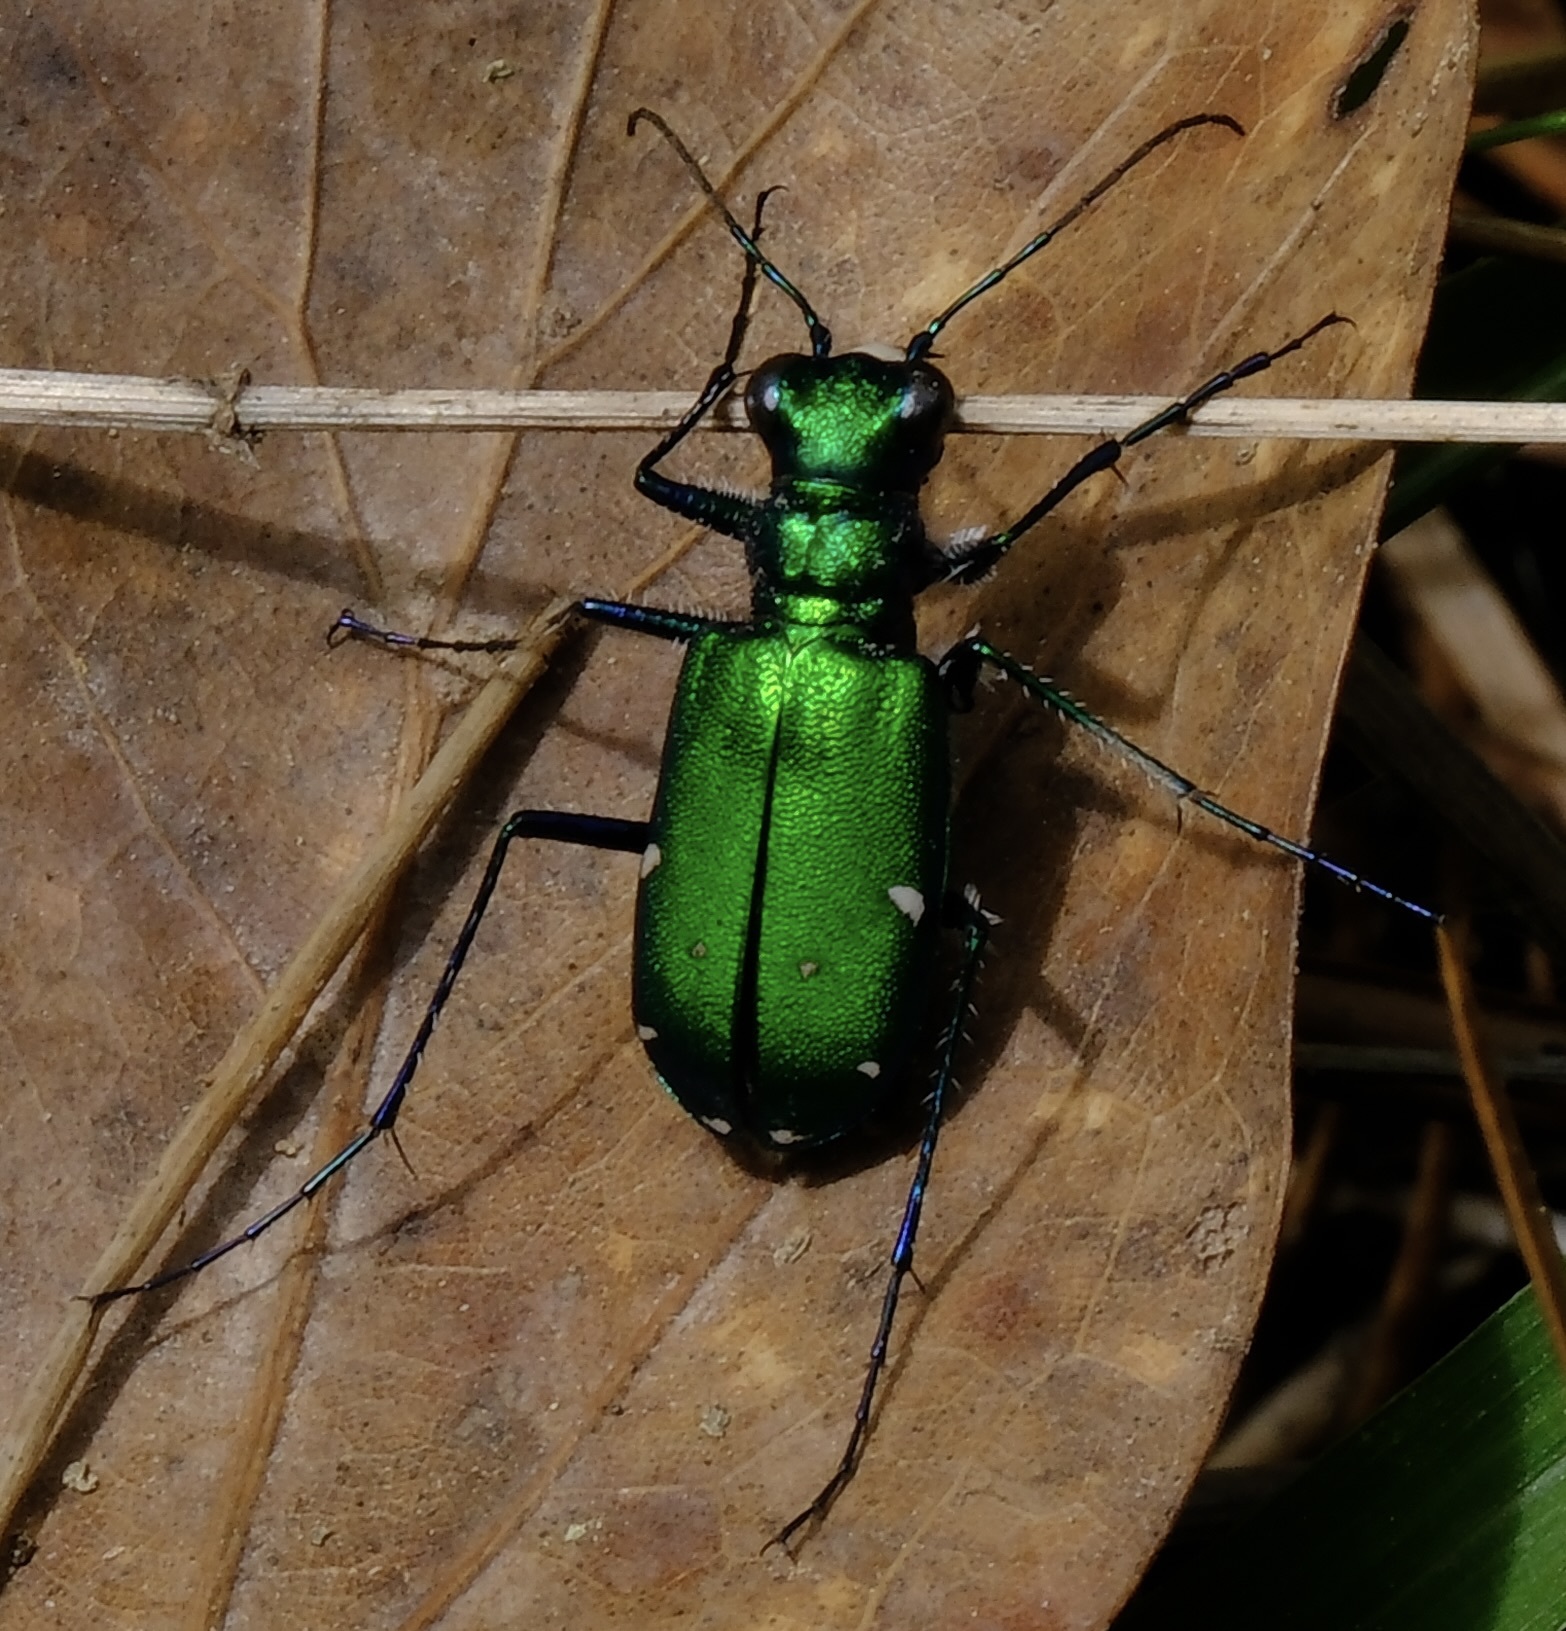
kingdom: Animalia
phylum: Arthropoda
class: Insecta
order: Coleoptera
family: Carabidae
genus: Cicindela
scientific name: Cicindela sexguttata
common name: Six-spotted tiger beetle
